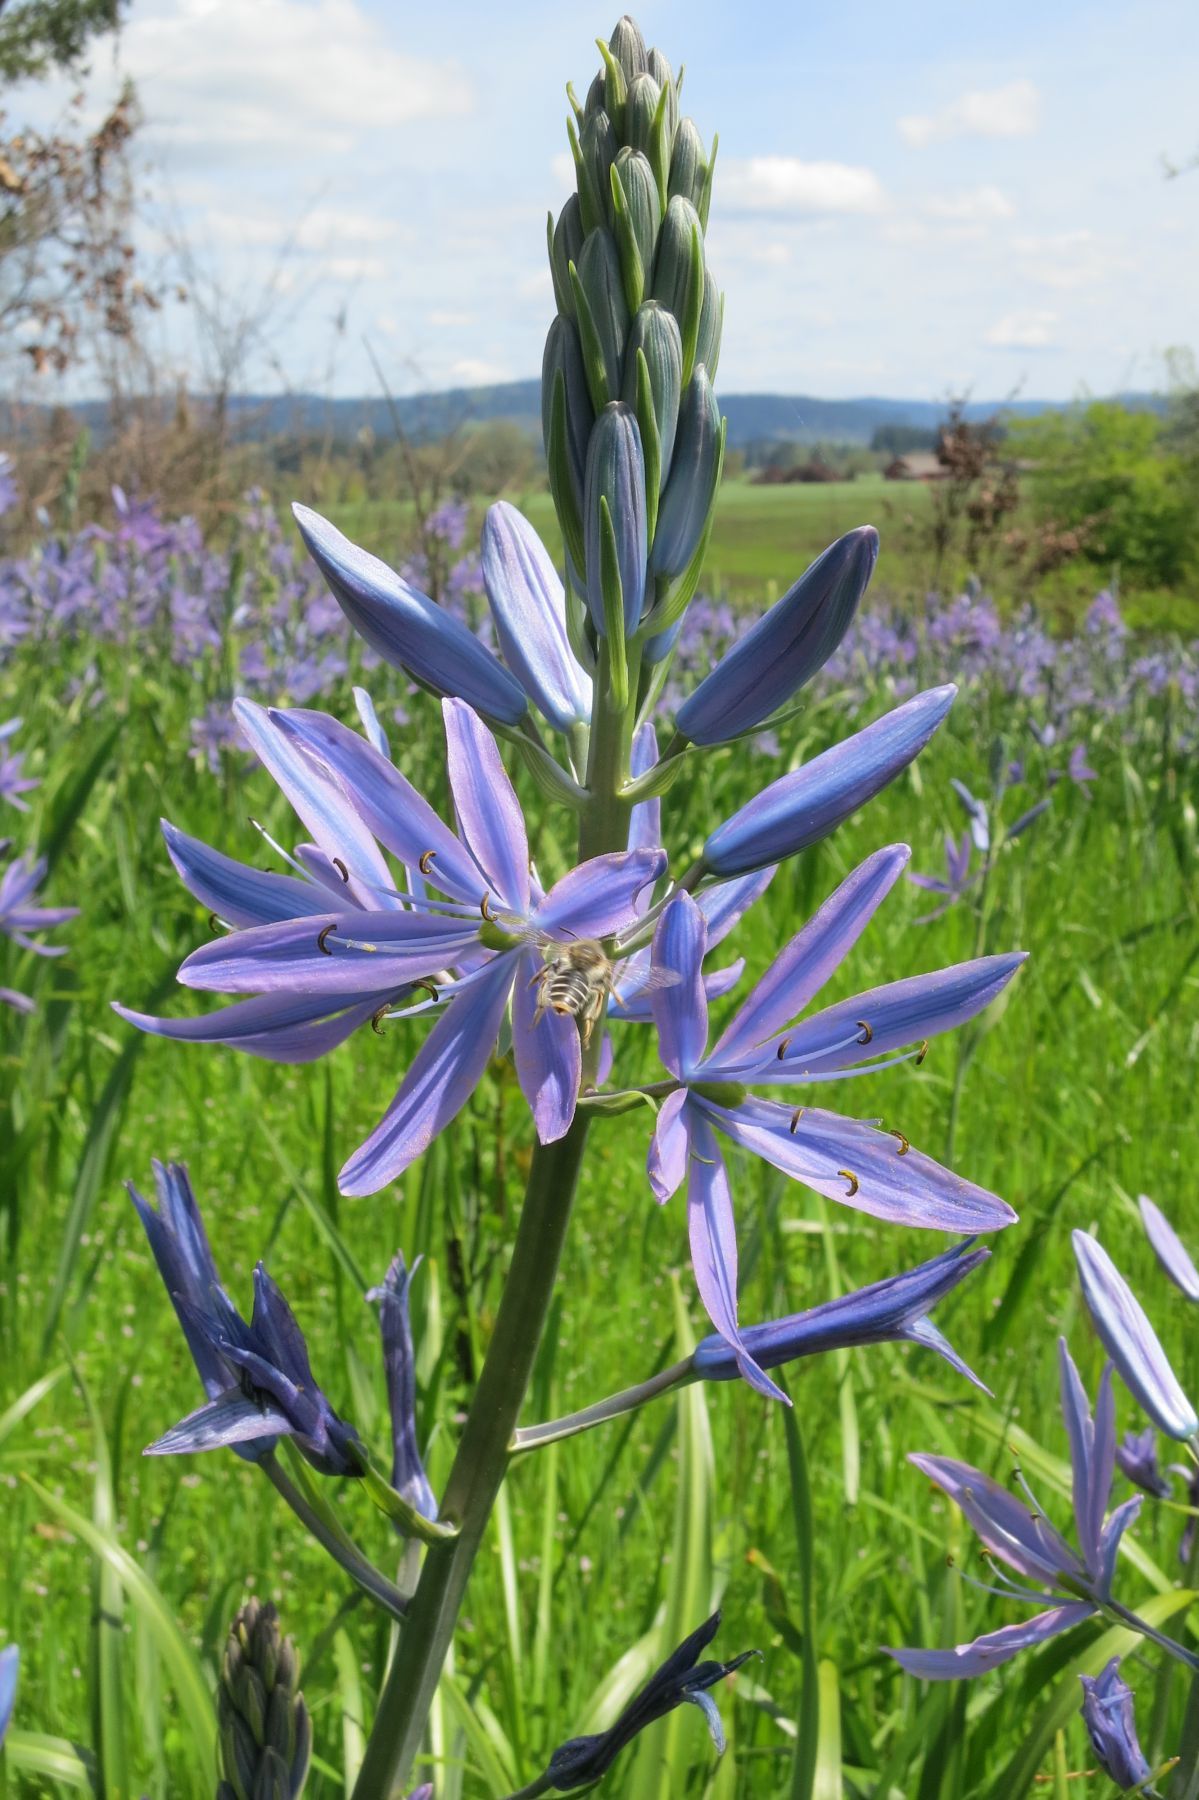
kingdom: Plantae
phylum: Tracheophyta
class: Liliopsida
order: Asparagales
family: Asparagaceae
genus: Camassia
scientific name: Camassia leichtlinii
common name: Leichtlin's camas
